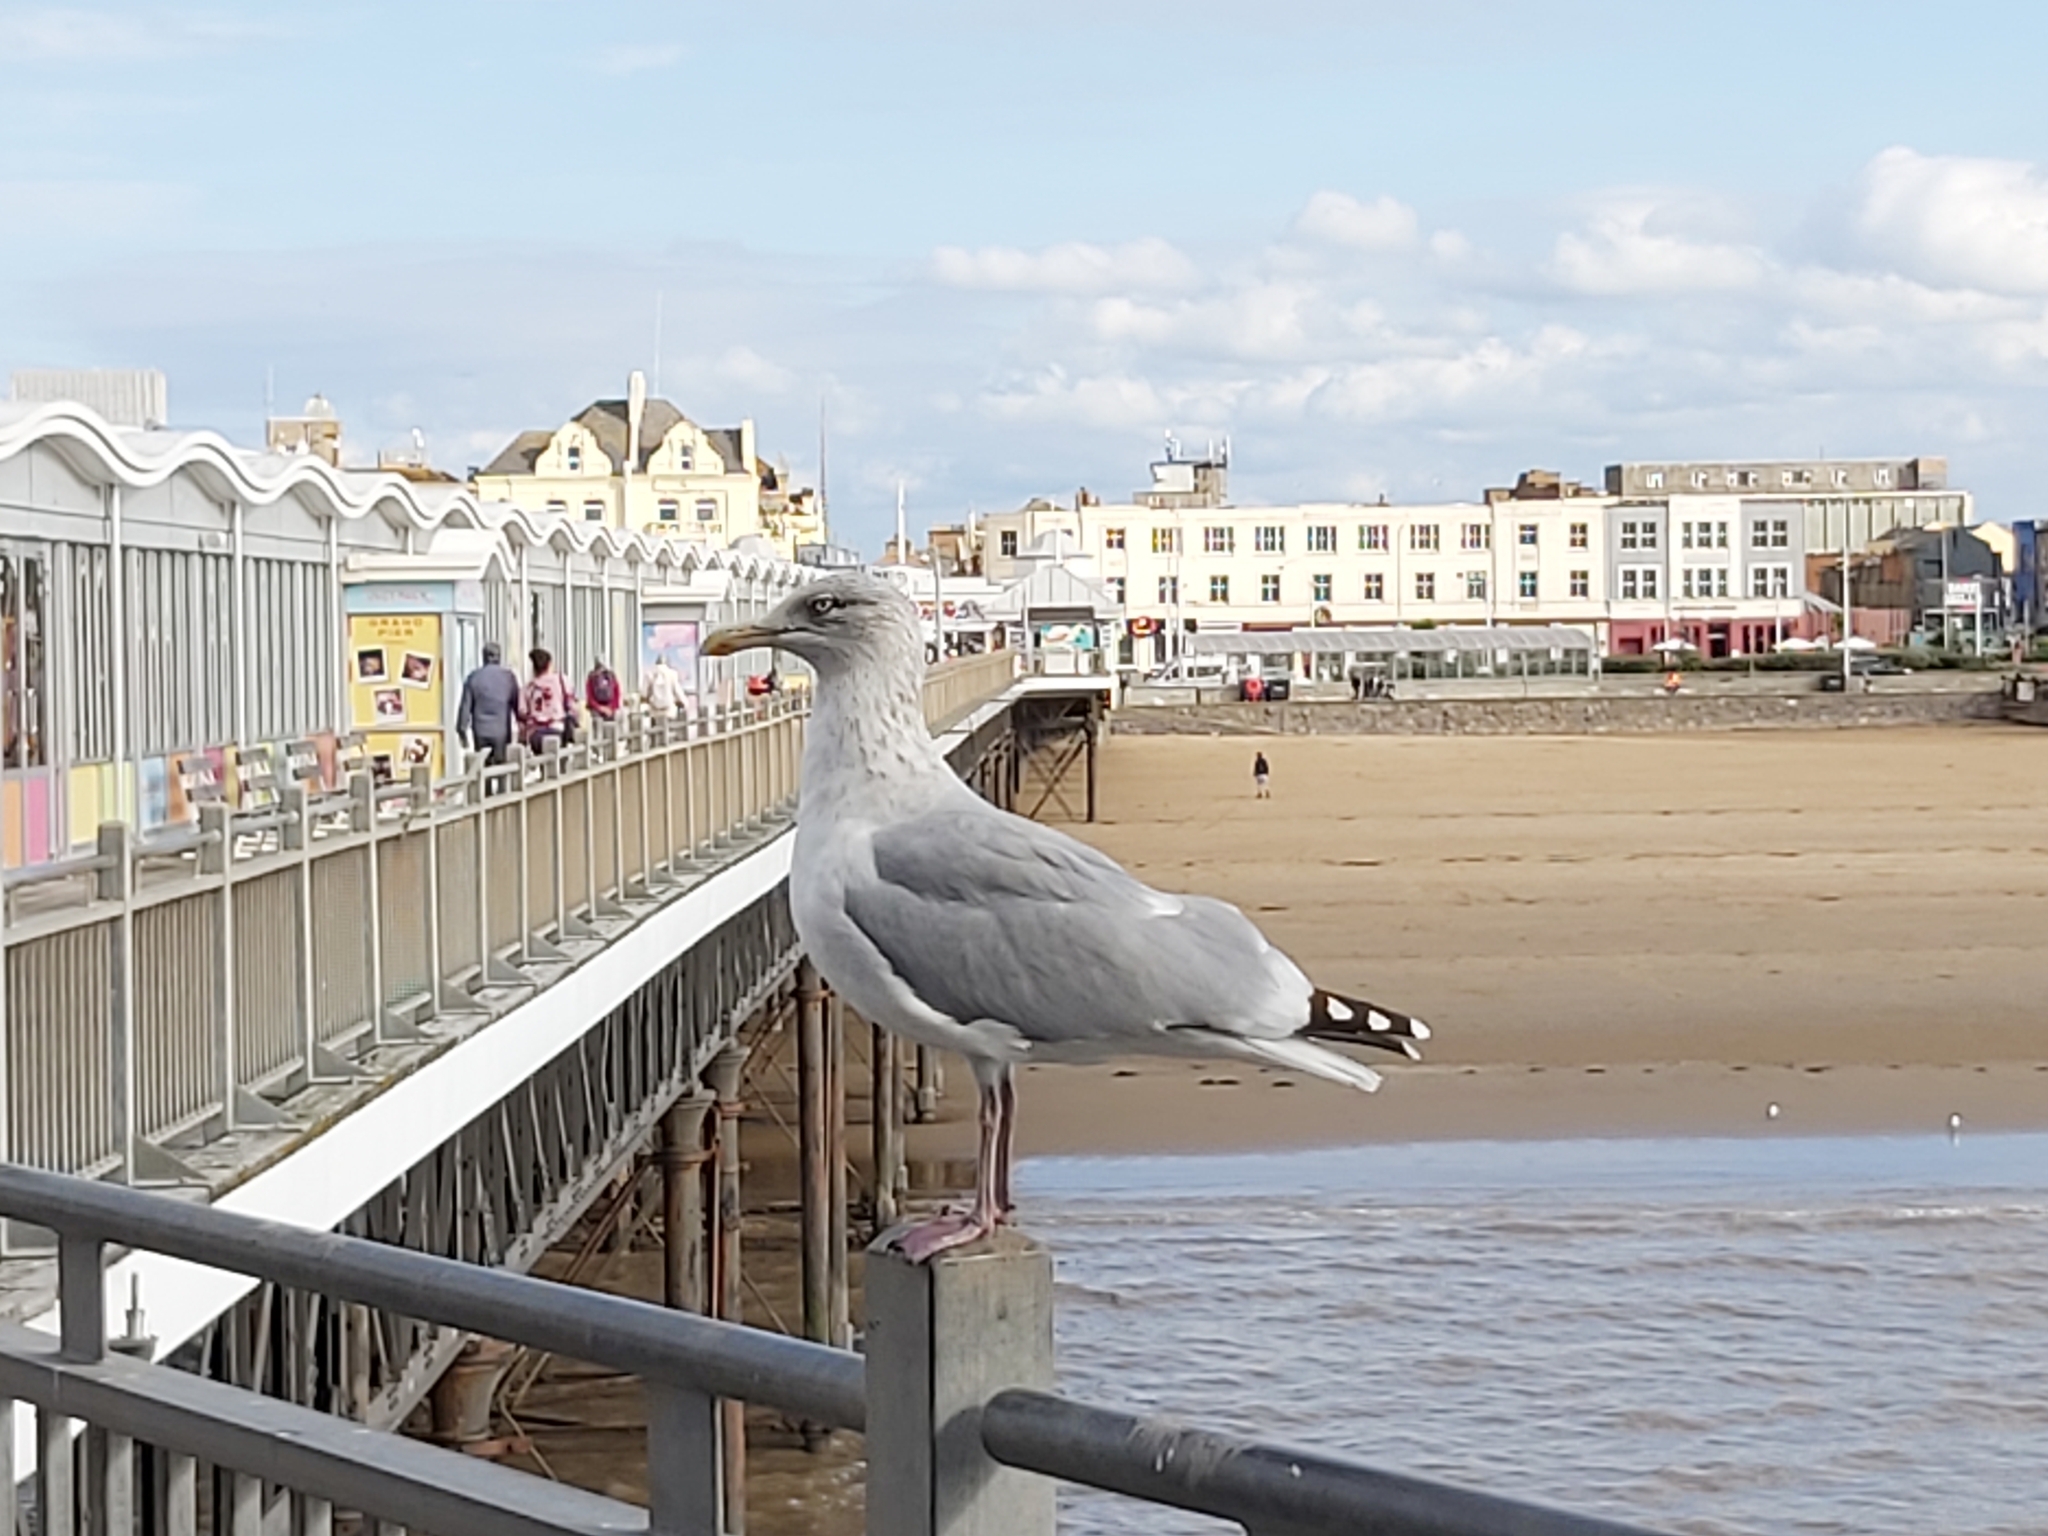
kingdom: Animalia
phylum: Chordata
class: Aves
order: Charadriiformes
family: Laridae
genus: Larus
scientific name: Larus argentatus
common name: Herring gull
